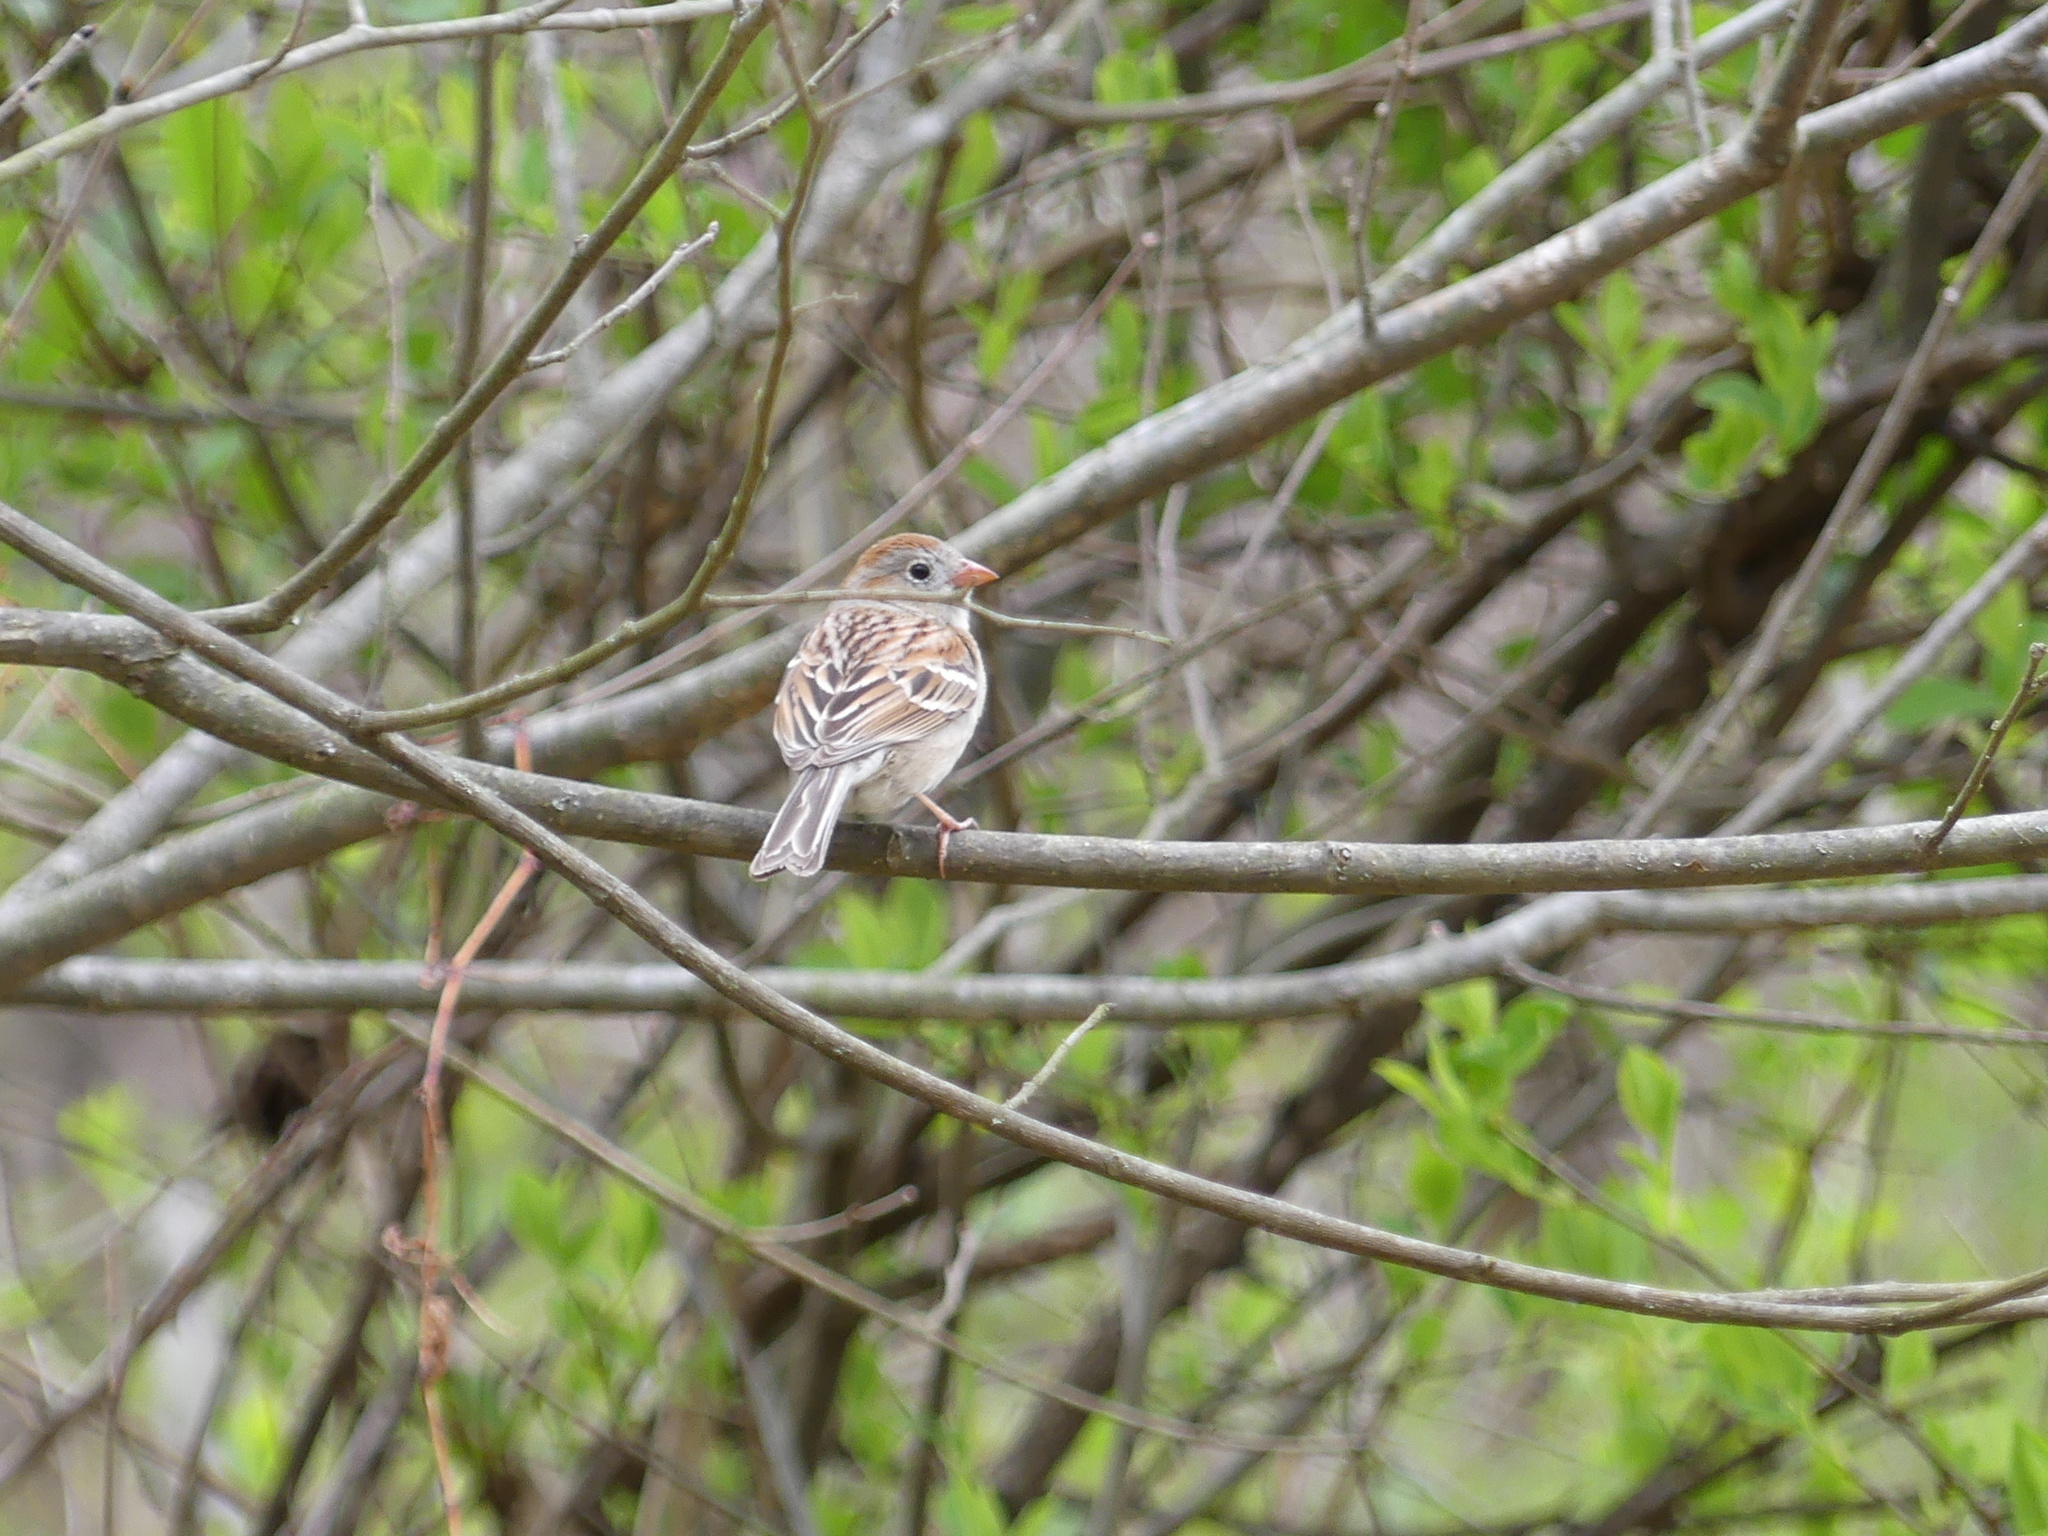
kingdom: Animalia
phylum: Chordata
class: Aves
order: Passeriformes
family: Passerellidae
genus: Spizella
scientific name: Spizella pusilla
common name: Field sparrow
